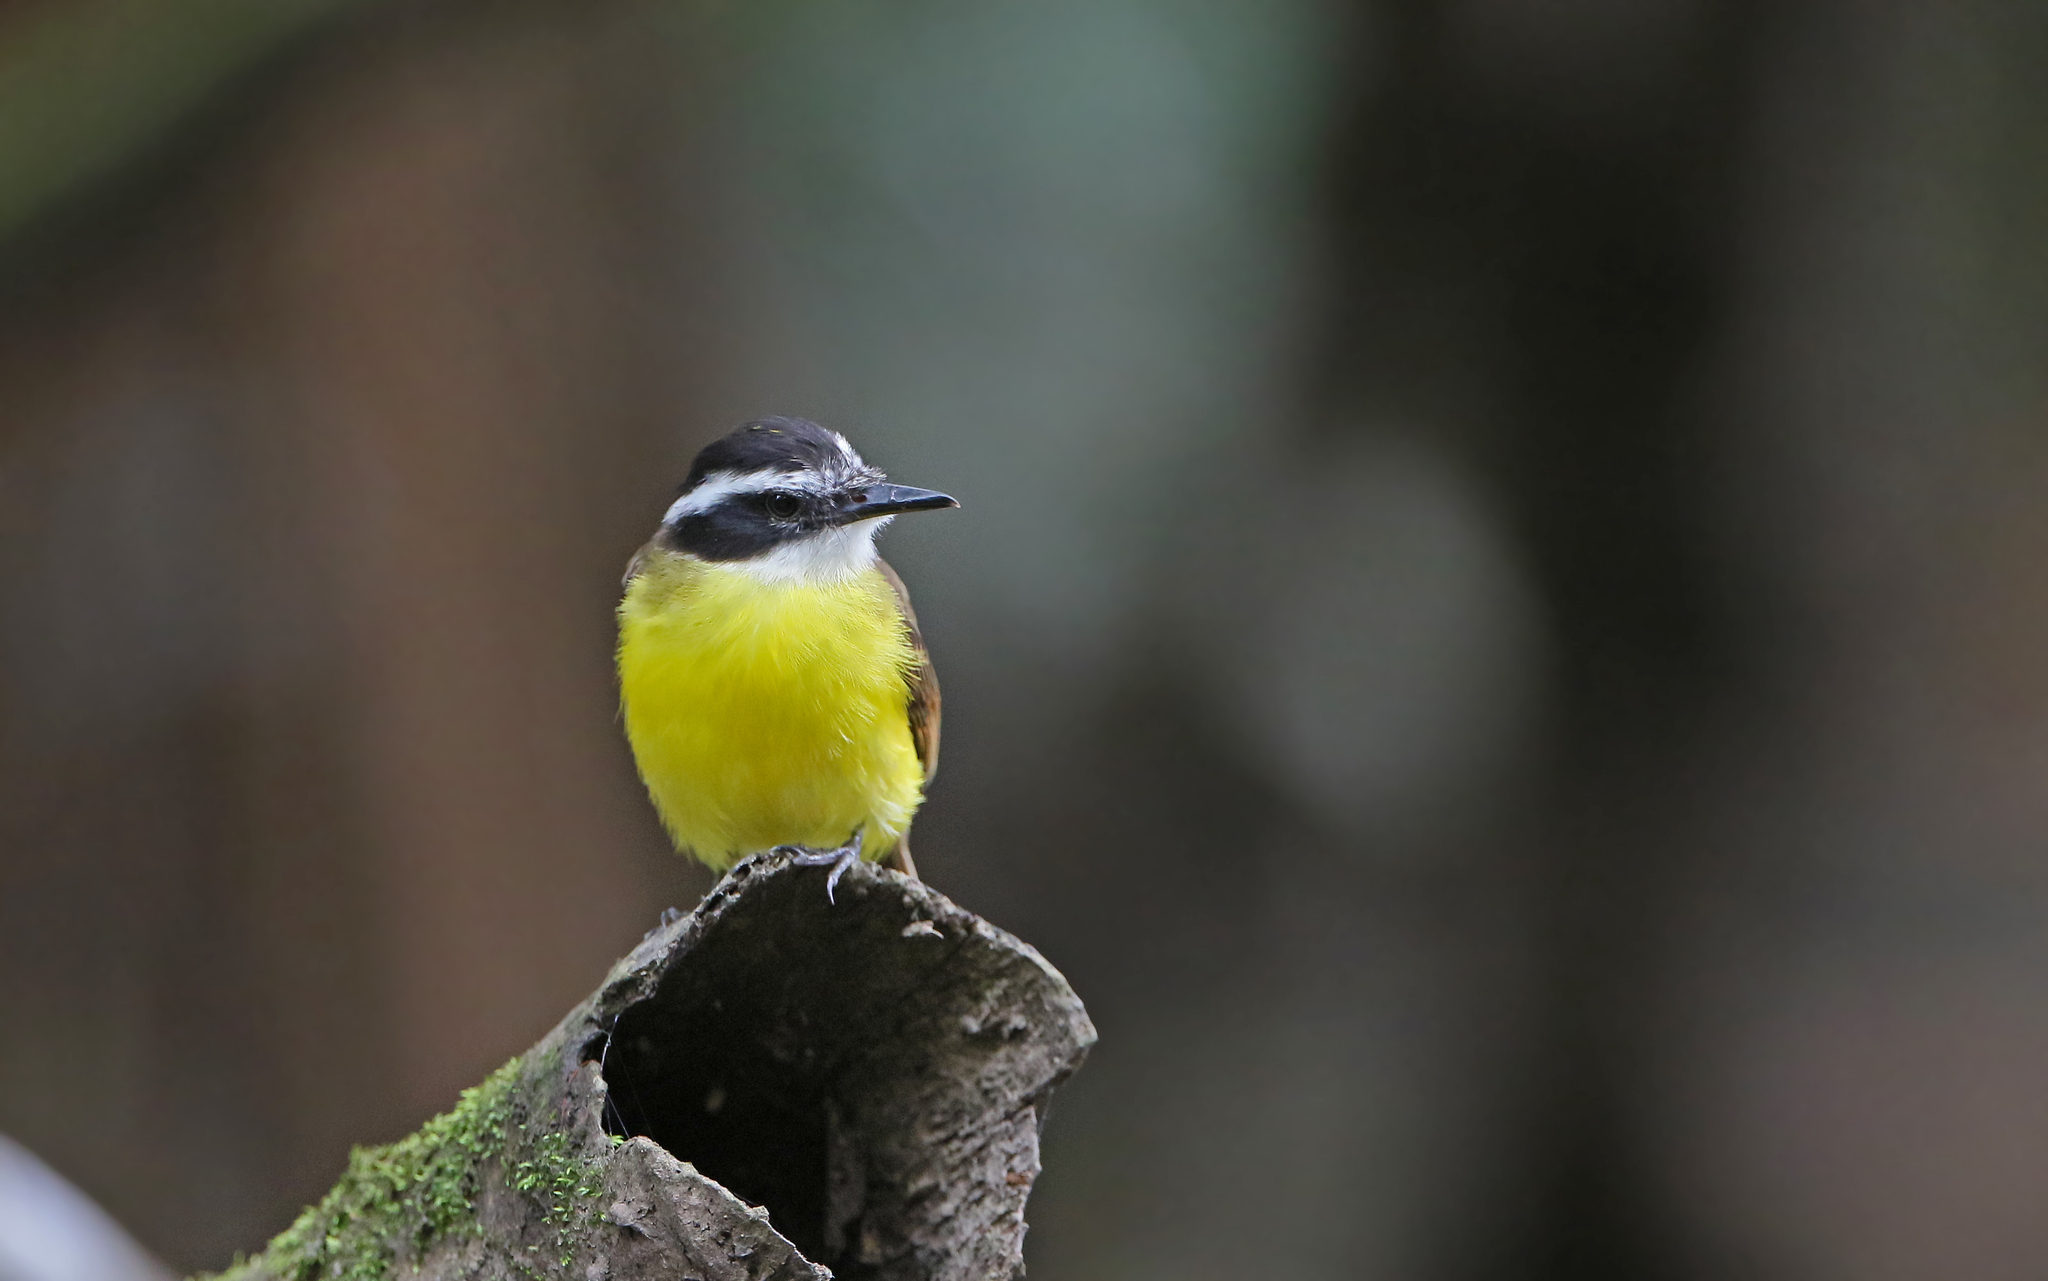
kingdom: Animalia
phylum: Chordata
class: Aves
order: Passeriformes
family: Tyrannidae
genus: Pitangus
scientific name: Pitangus lictor
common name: Lesser kiskadee
